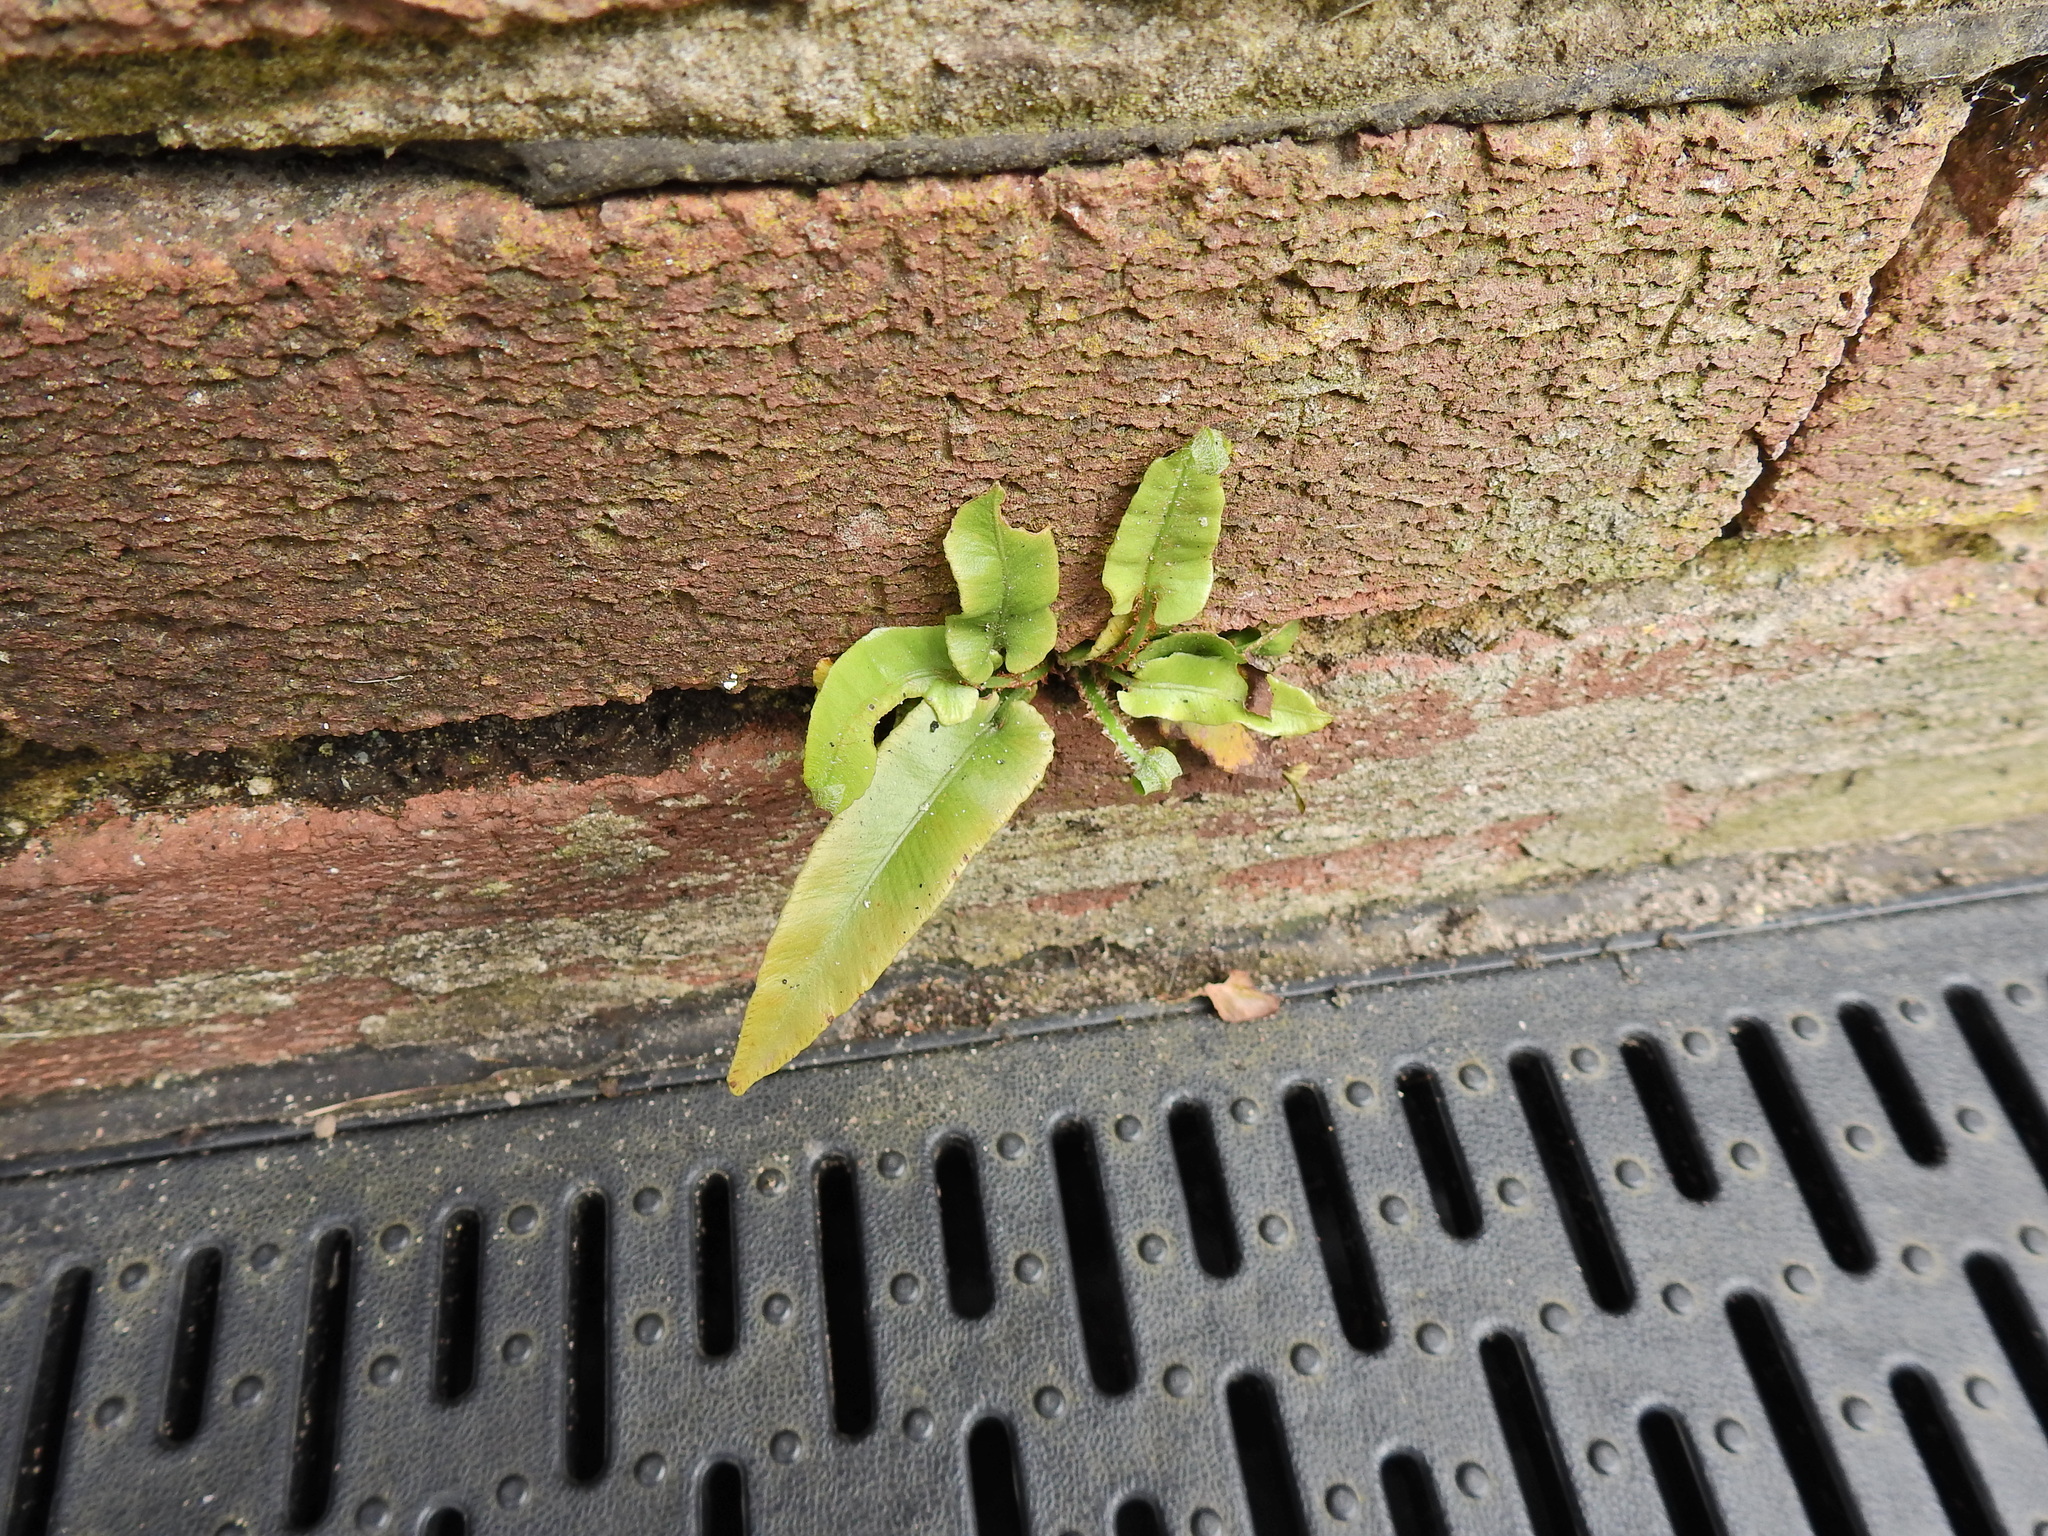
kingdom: Plantae
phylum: Tracheophyta
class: Polypodiopsida
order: Polypodiales
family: Aspleniaceae
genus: Asplenium
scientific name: Asplenium scolopendrium
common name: Hart's-tongue fern
